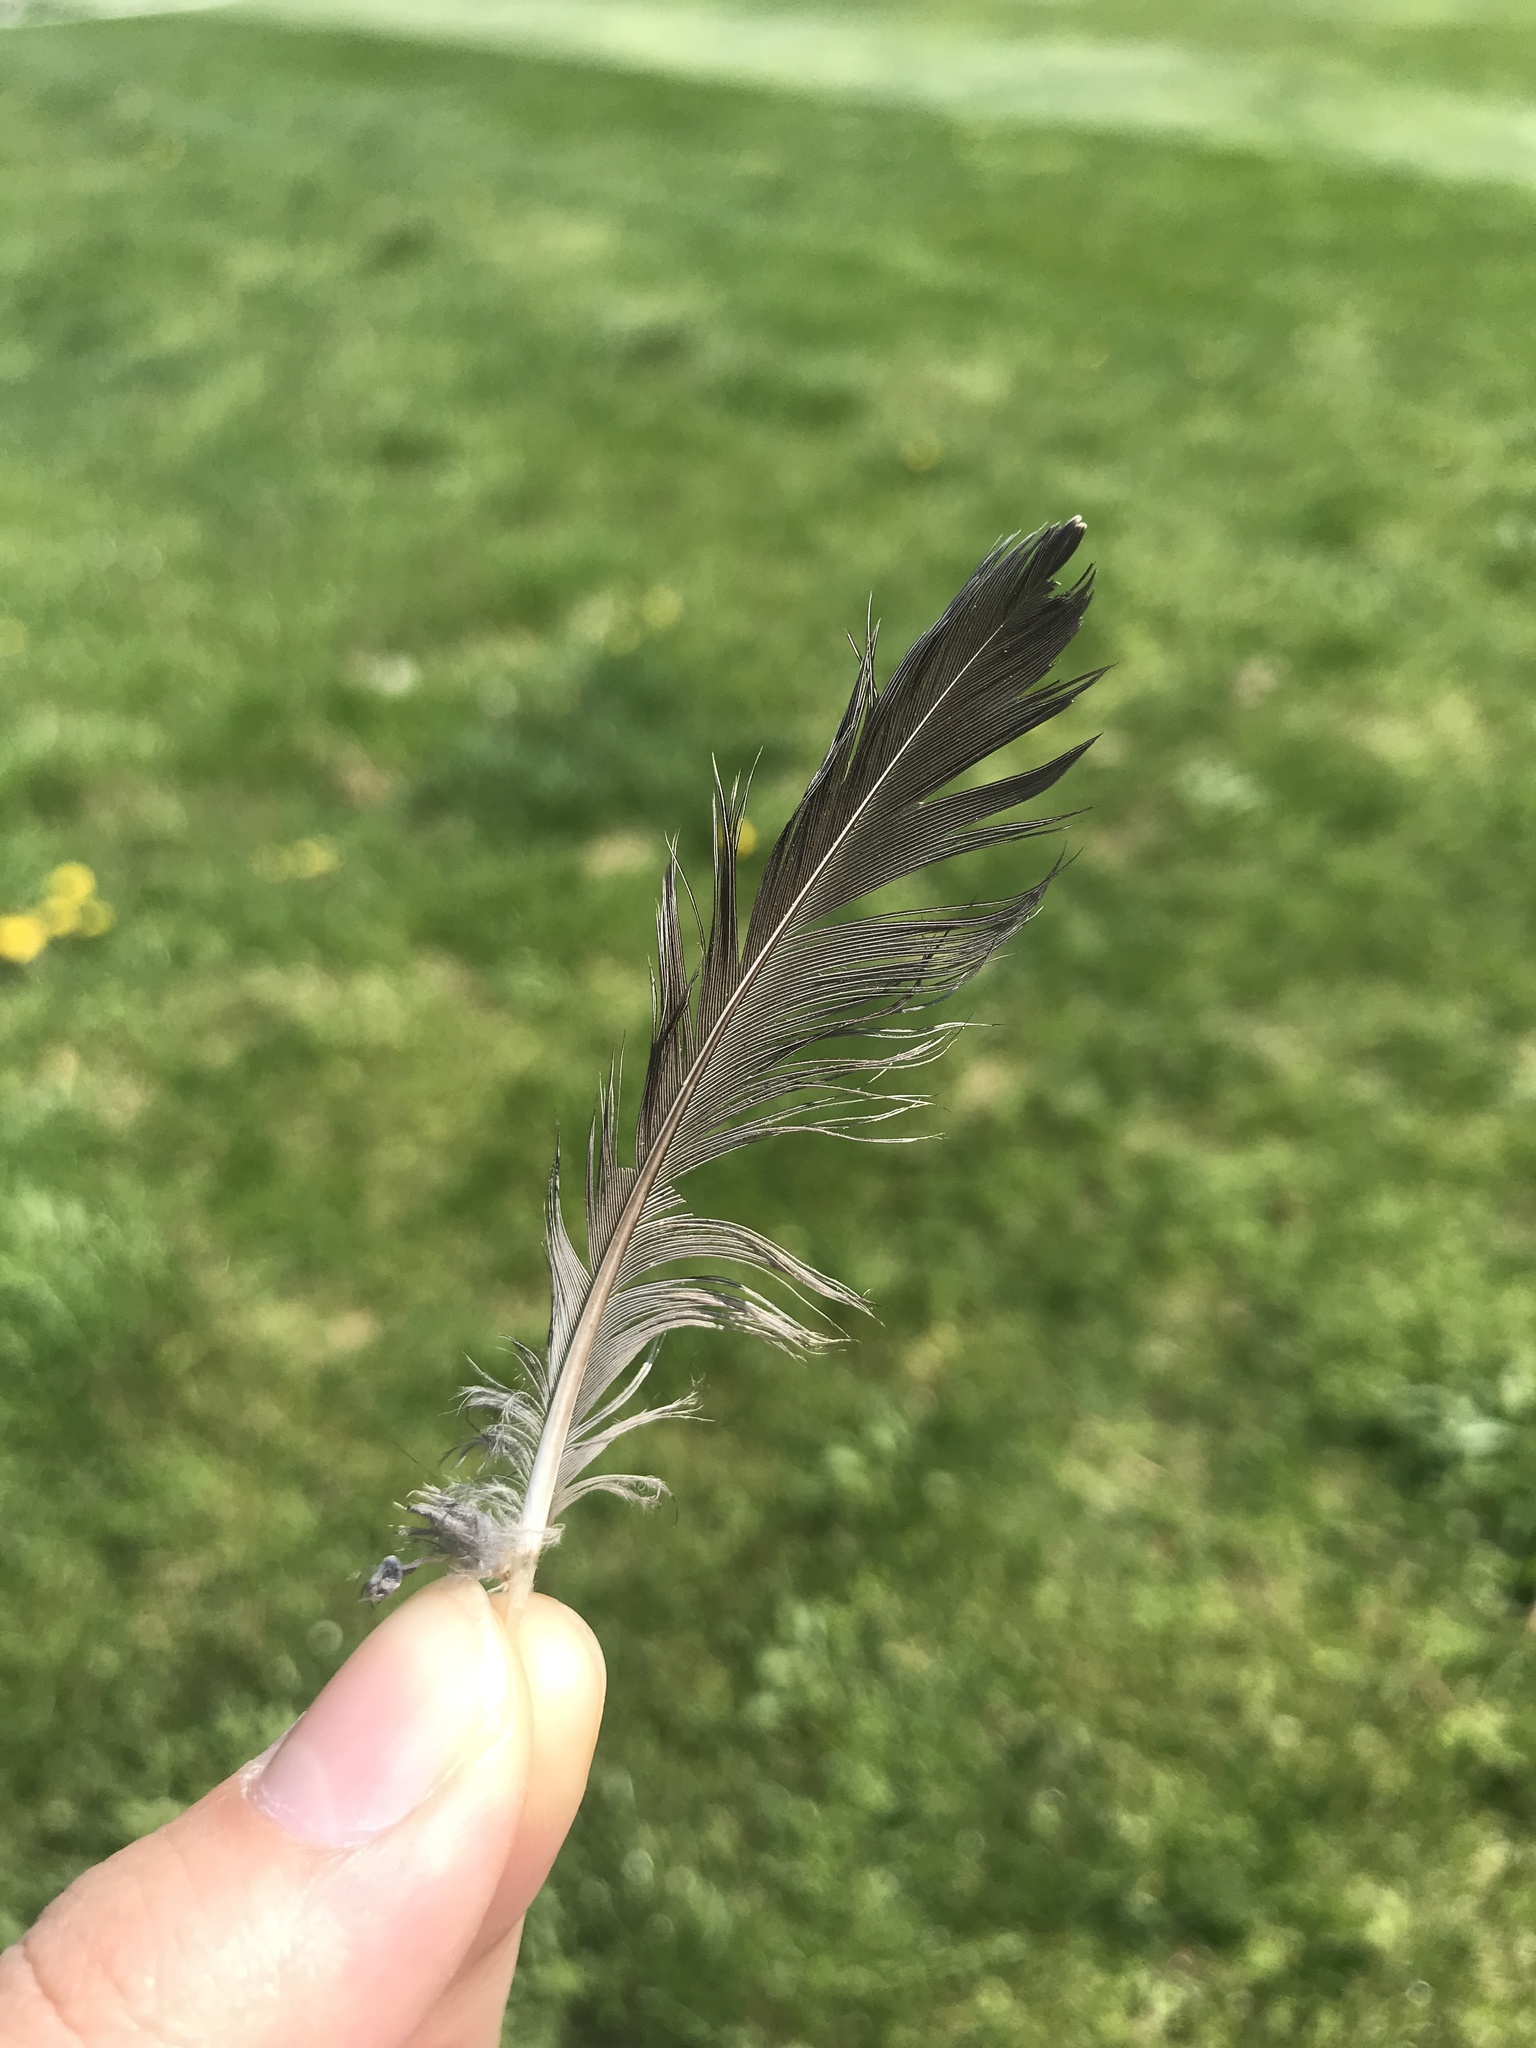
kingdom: Animalia
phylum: Chordata
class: Aves
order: Passeriformes
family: Turdidae
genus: Turdus
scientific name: Turdus migratorius
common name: American robin
